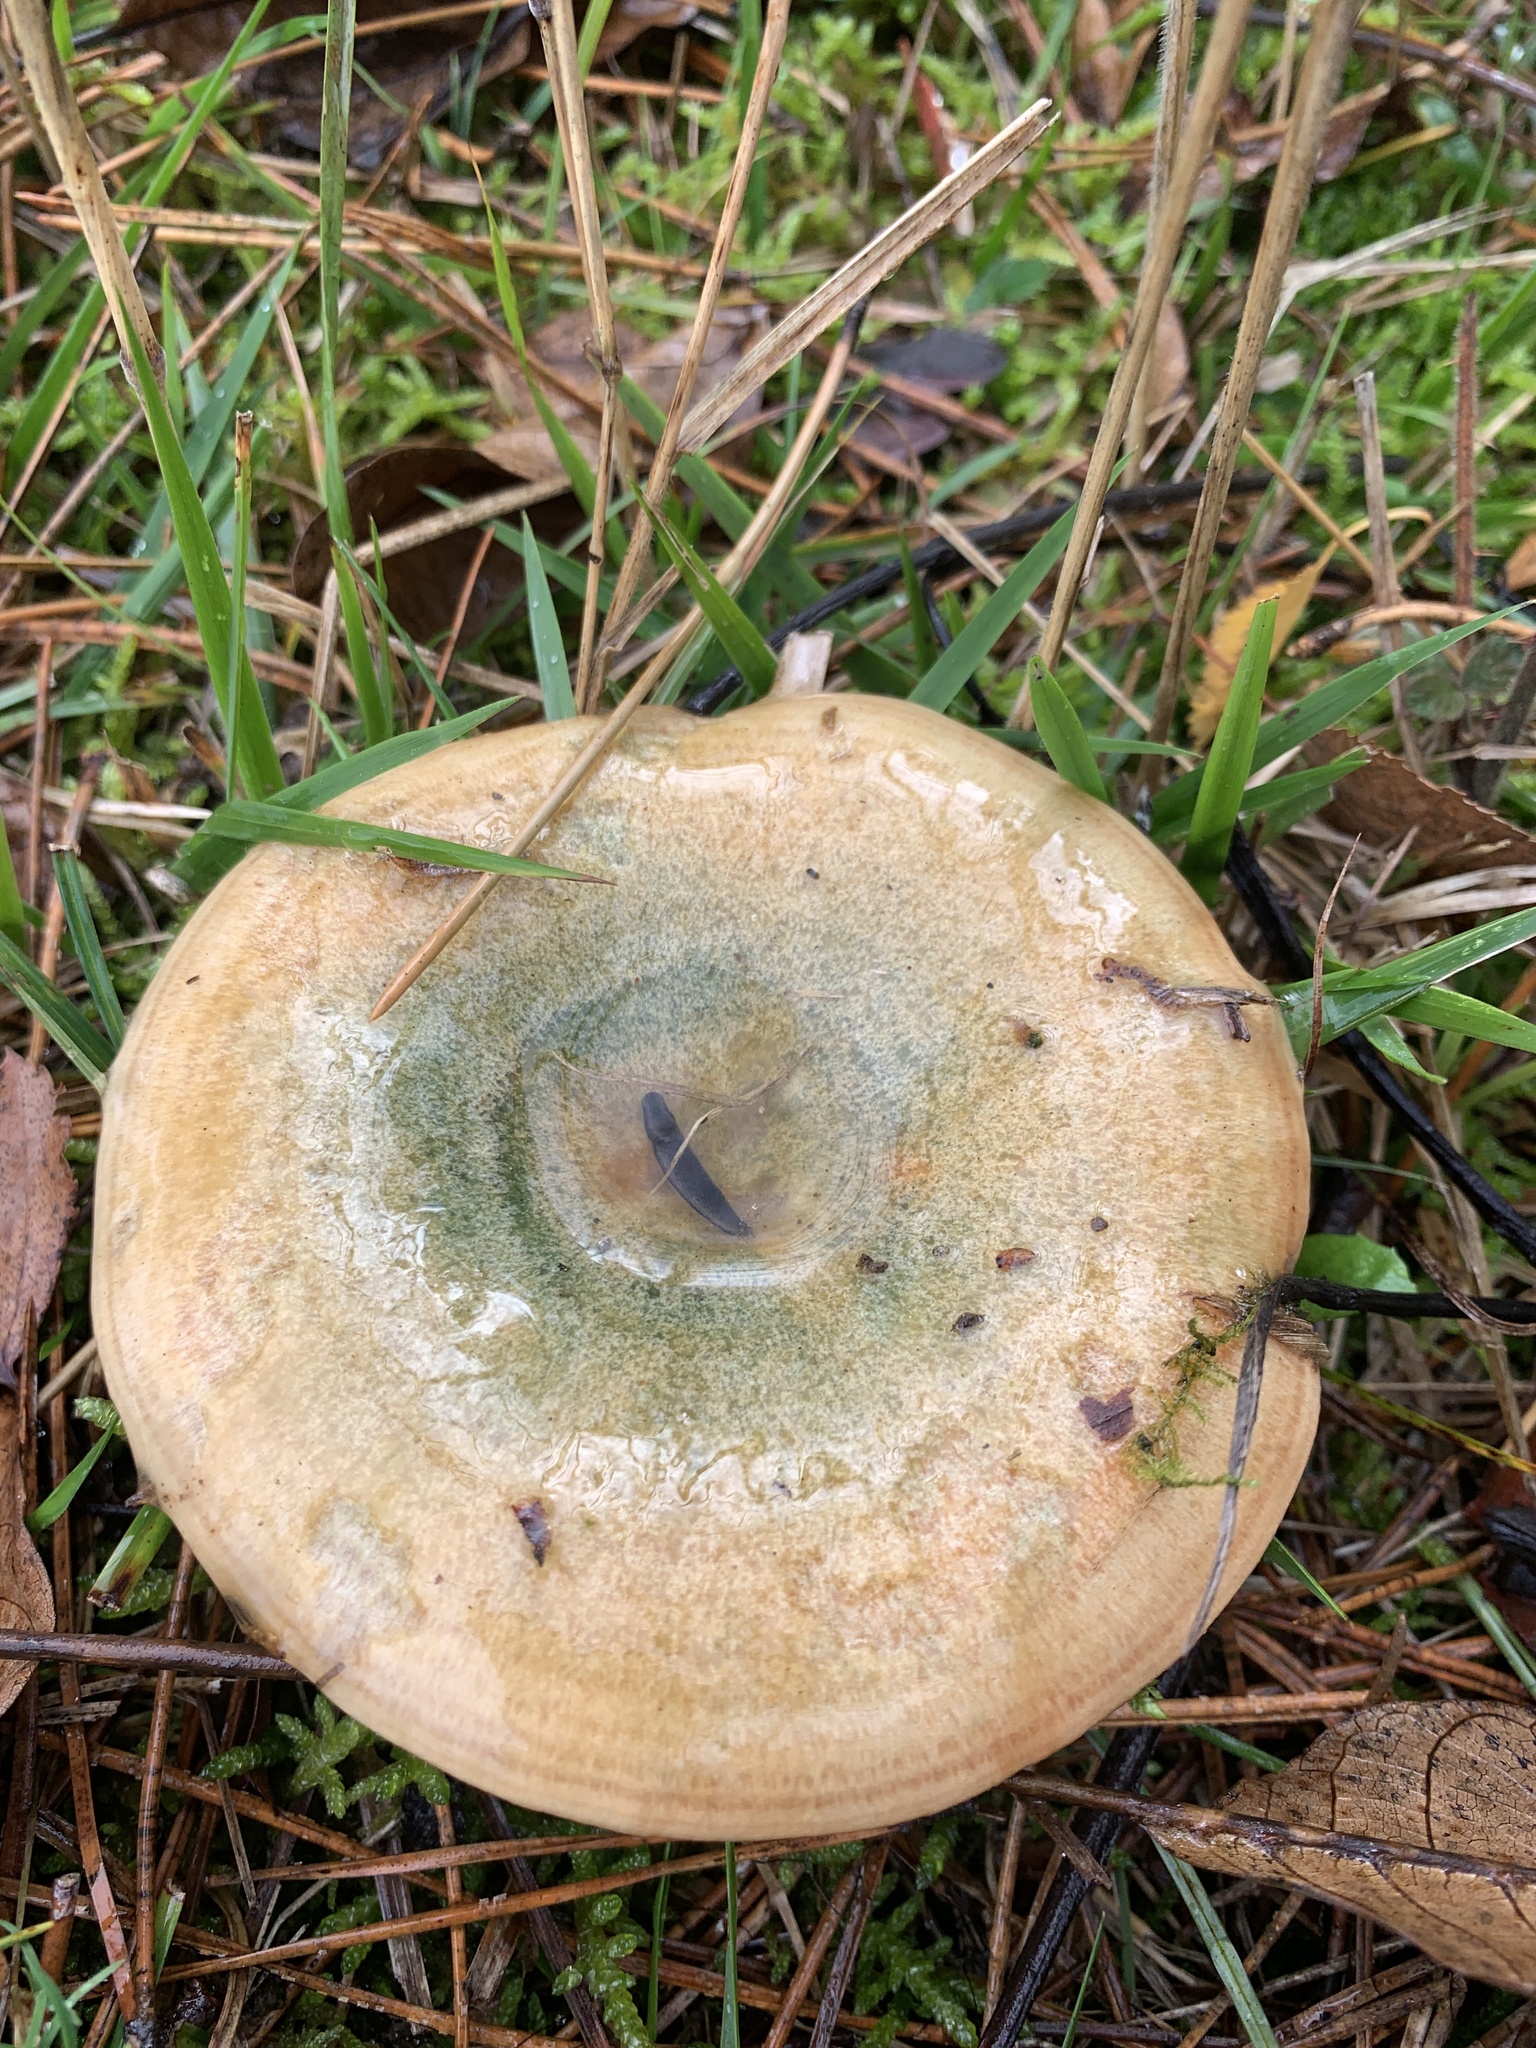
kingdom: Fungi
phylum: Basidiomycota
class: Agaricomycetes
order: Russulales
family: Russulaceae
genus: Lactarius
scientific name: Lactarius deliciosus
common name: Saffron milk-cap
